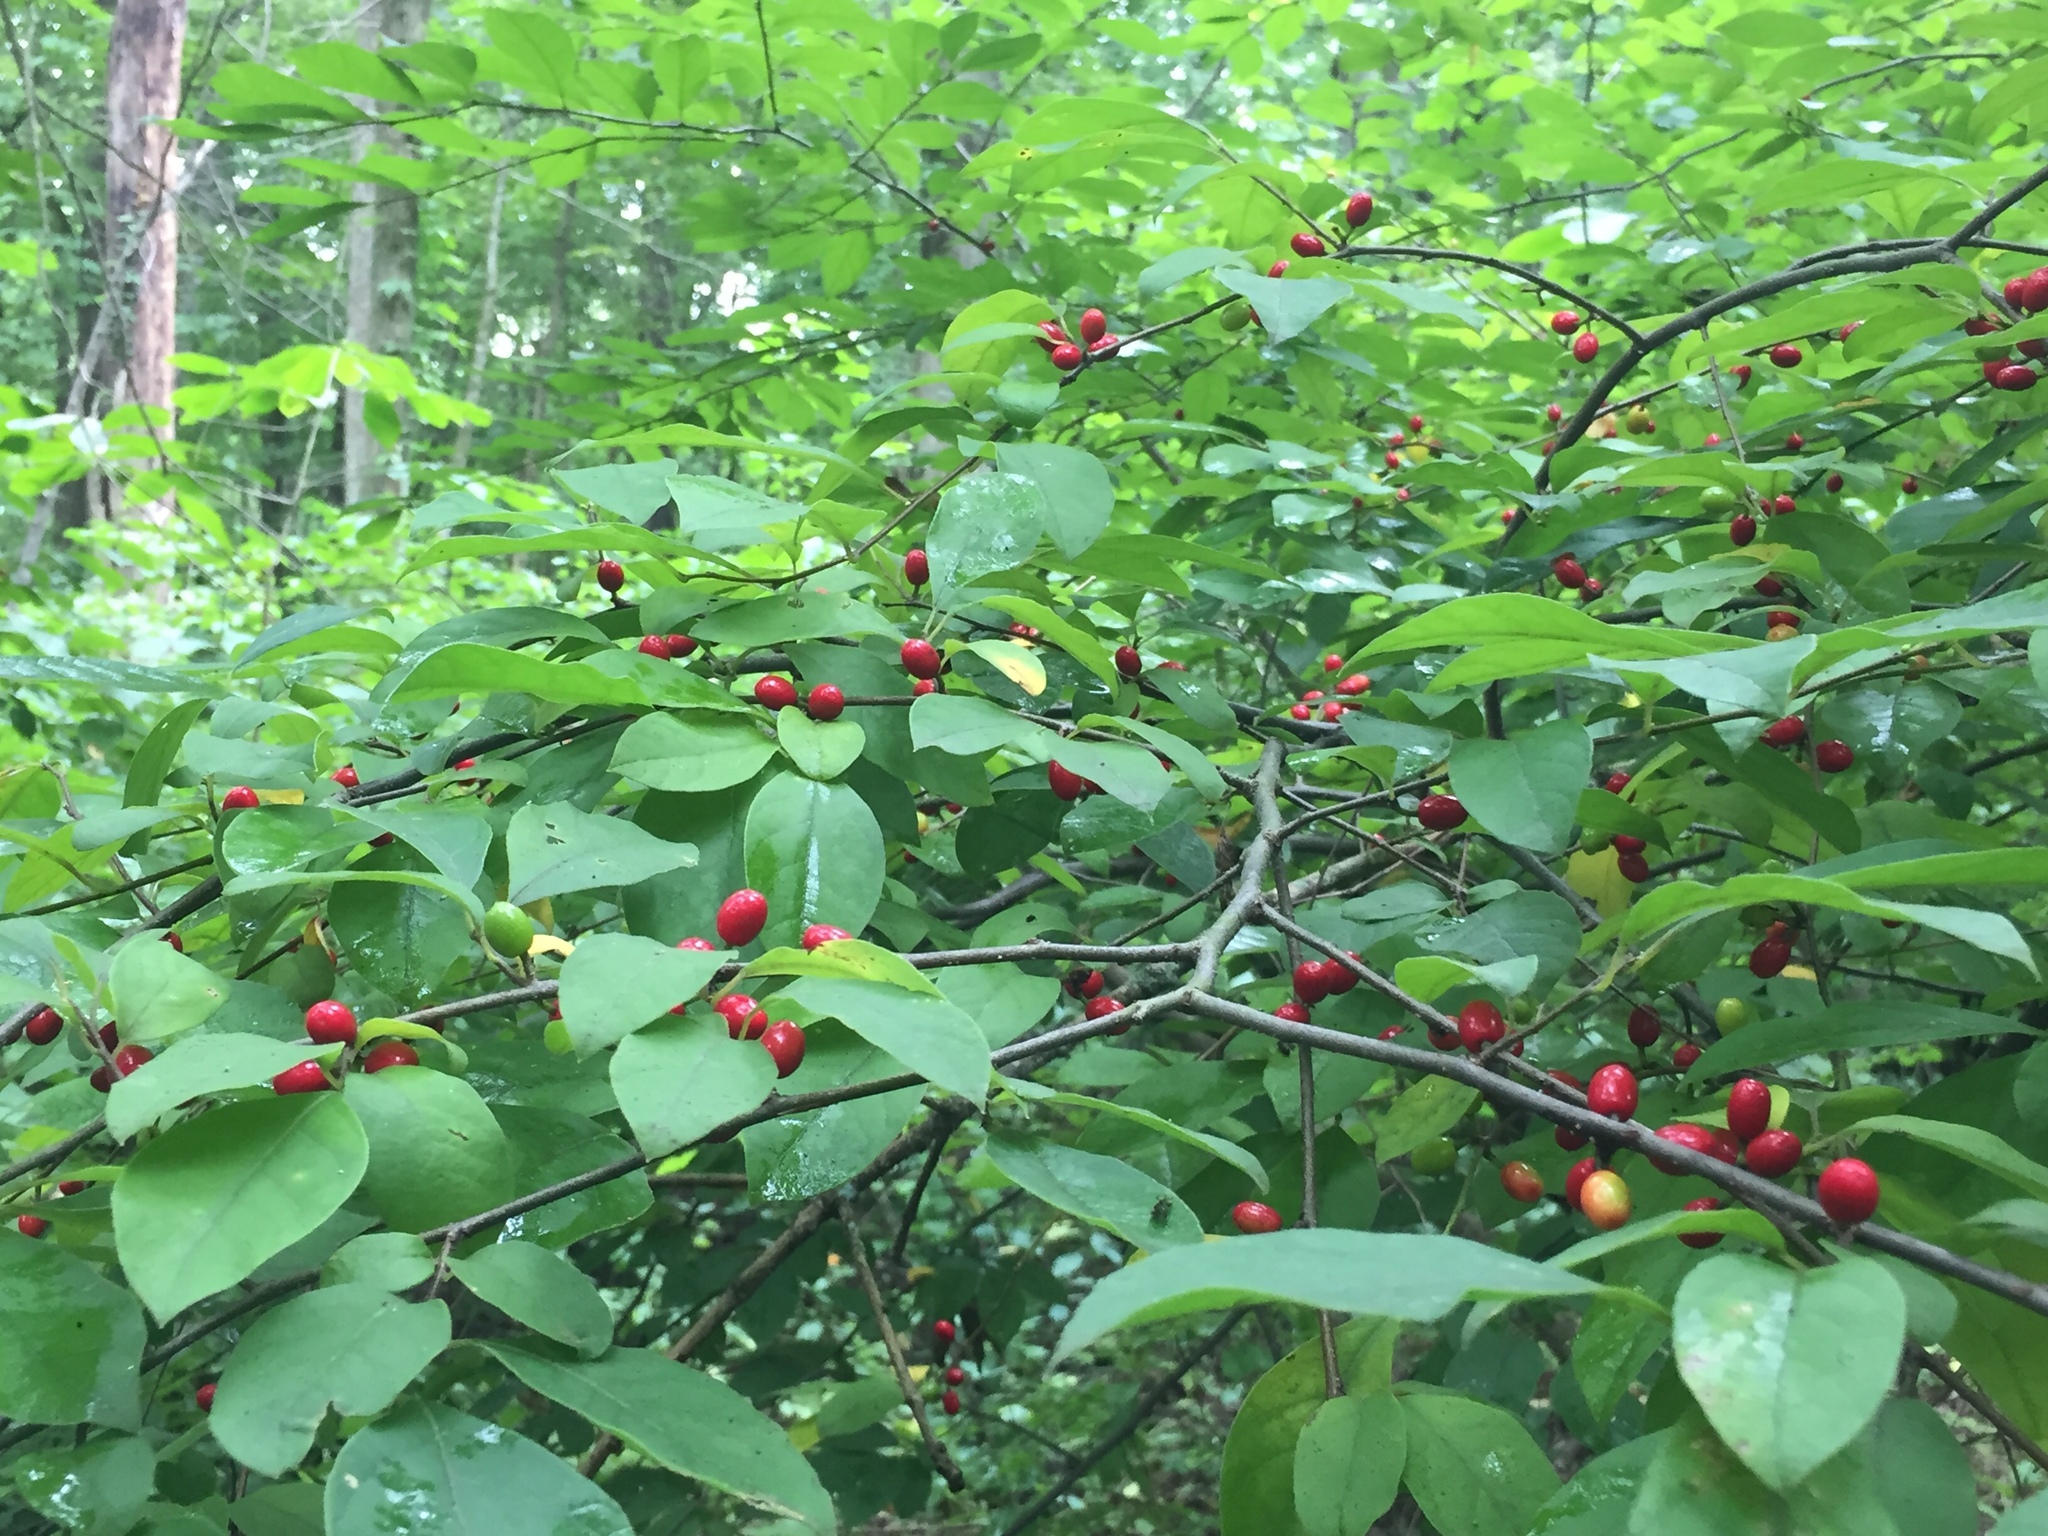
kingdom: Plantae
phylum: Tracheophyta
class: Magnoliopsida
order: Laurales
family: Lauraceae
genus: Lindera
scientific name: Lindera benzoin
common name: Spicebush
